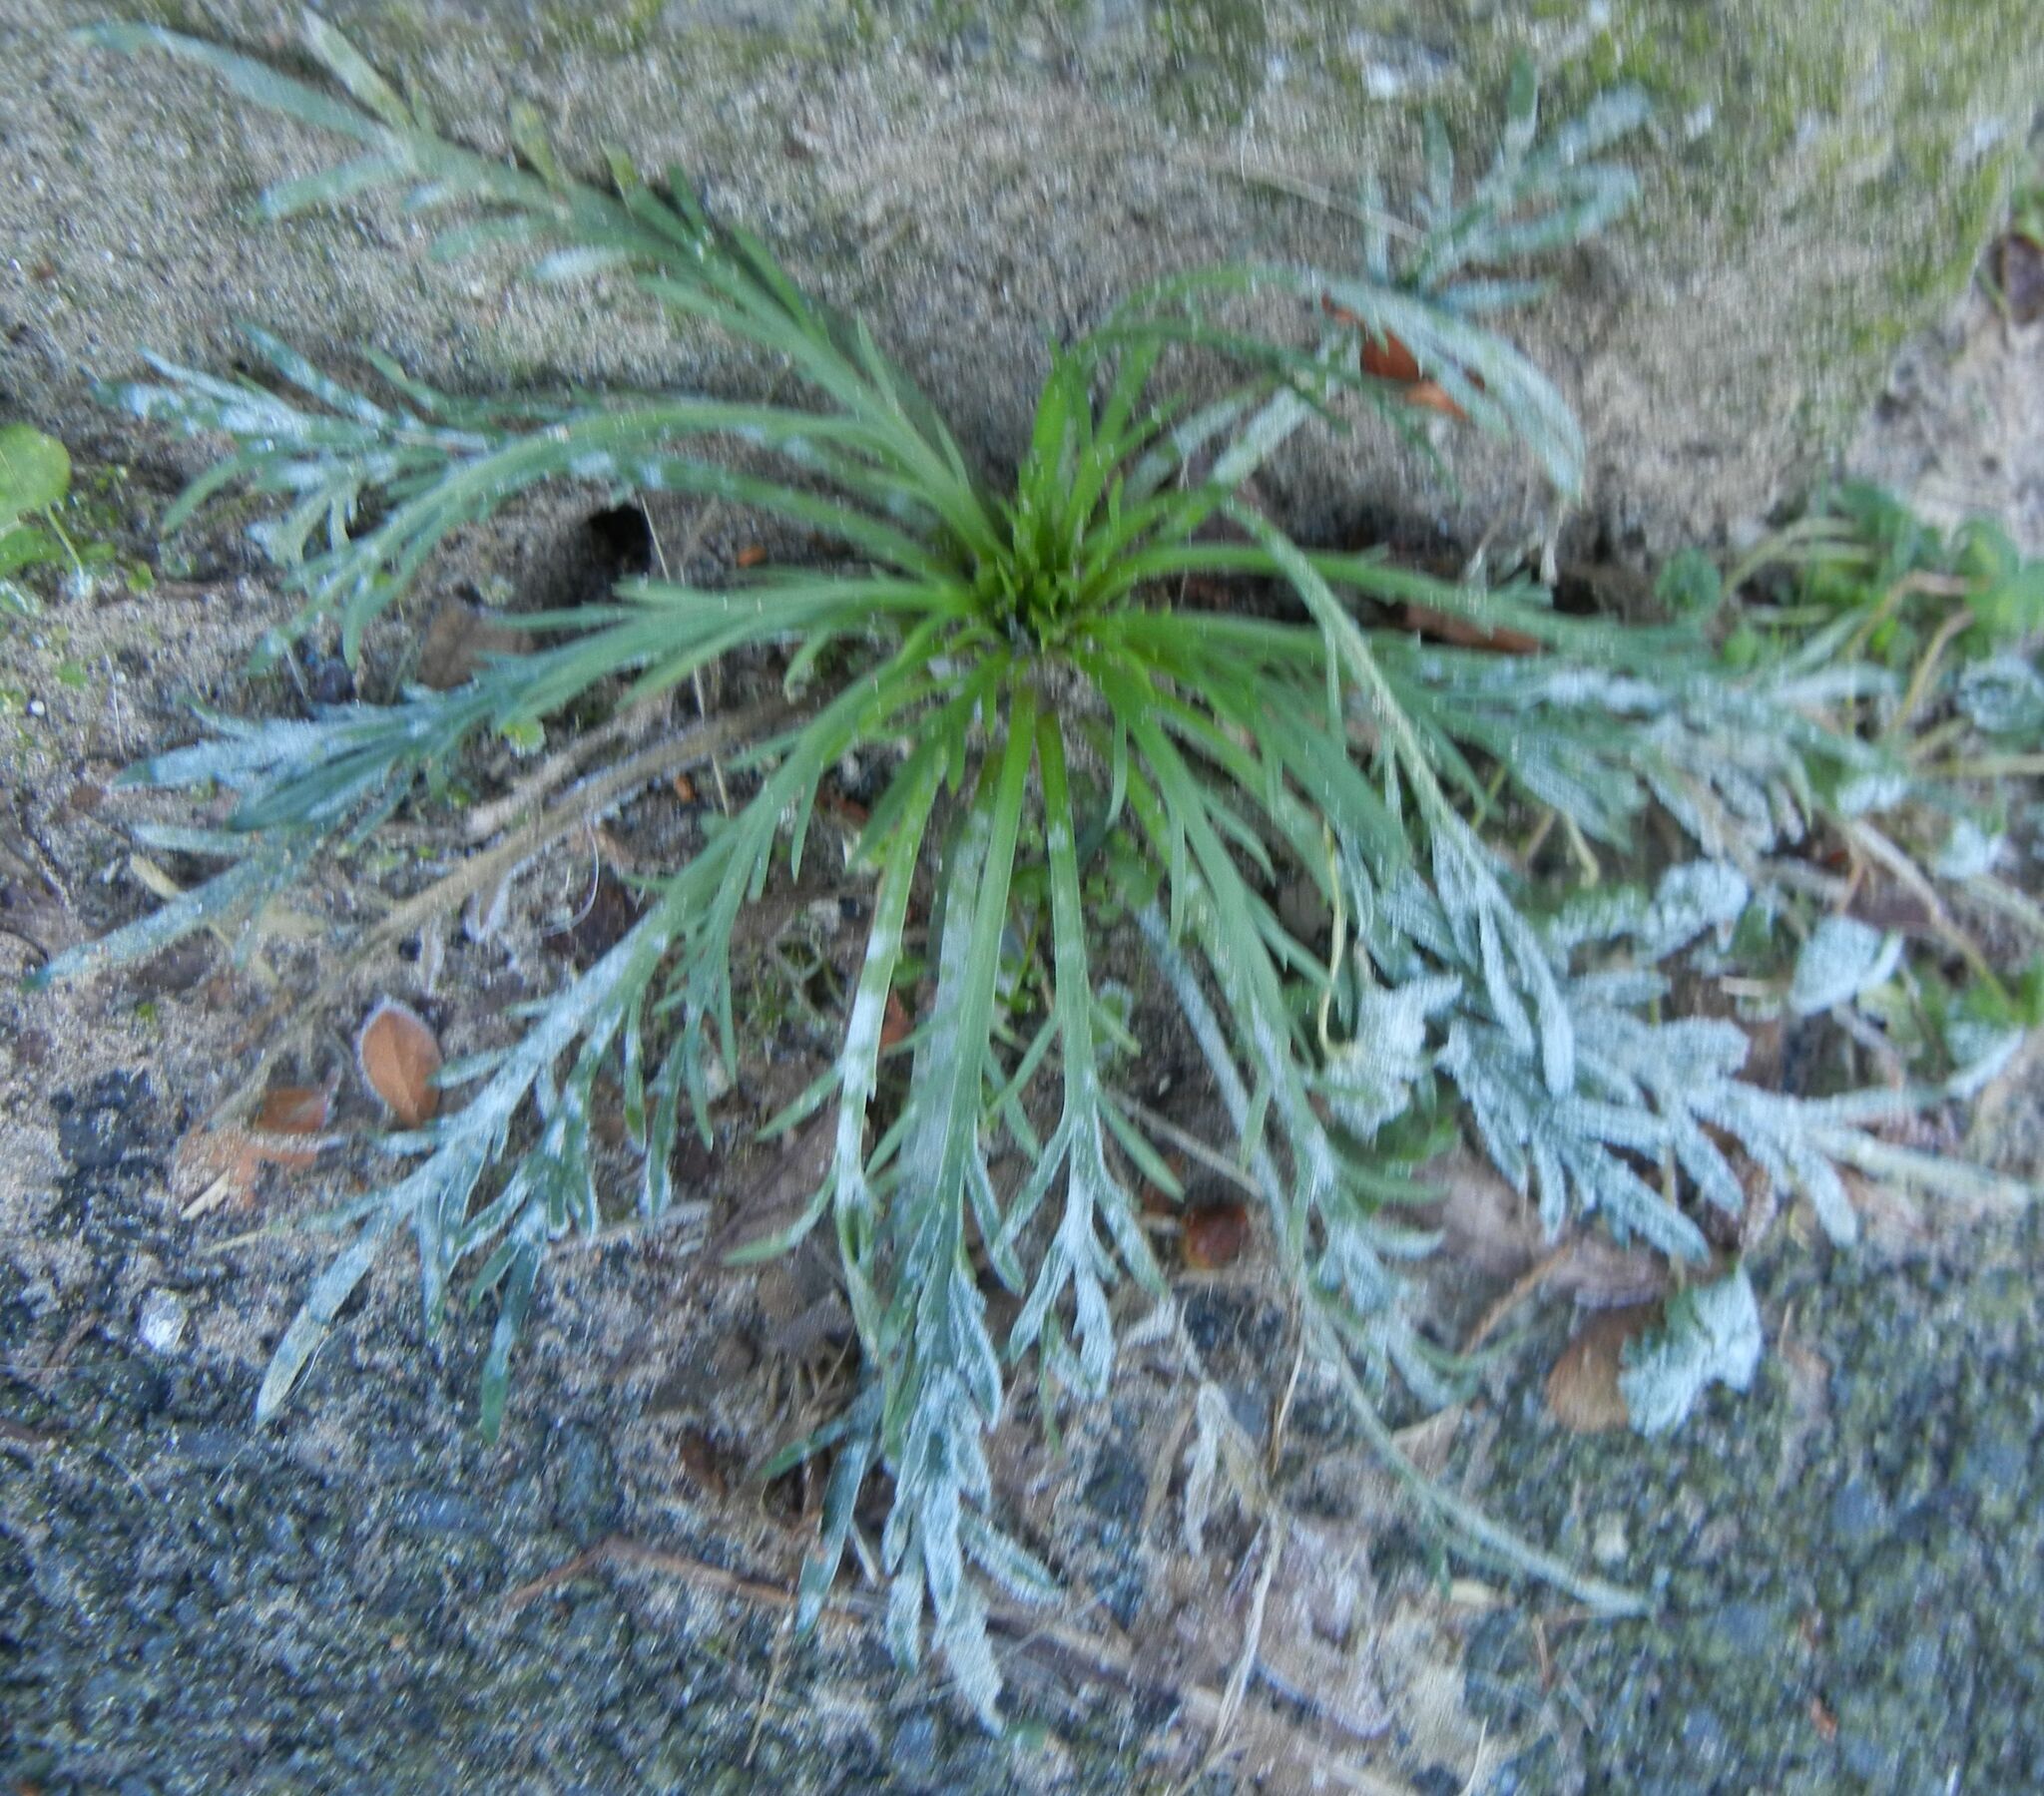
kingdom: Plantae
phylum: Tracheophyta
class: Magnoliopsida
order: Lamiales
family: Plantaginaceae
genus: Plantago
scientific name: Plantago coronopus
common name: Buck's-horn plantain
